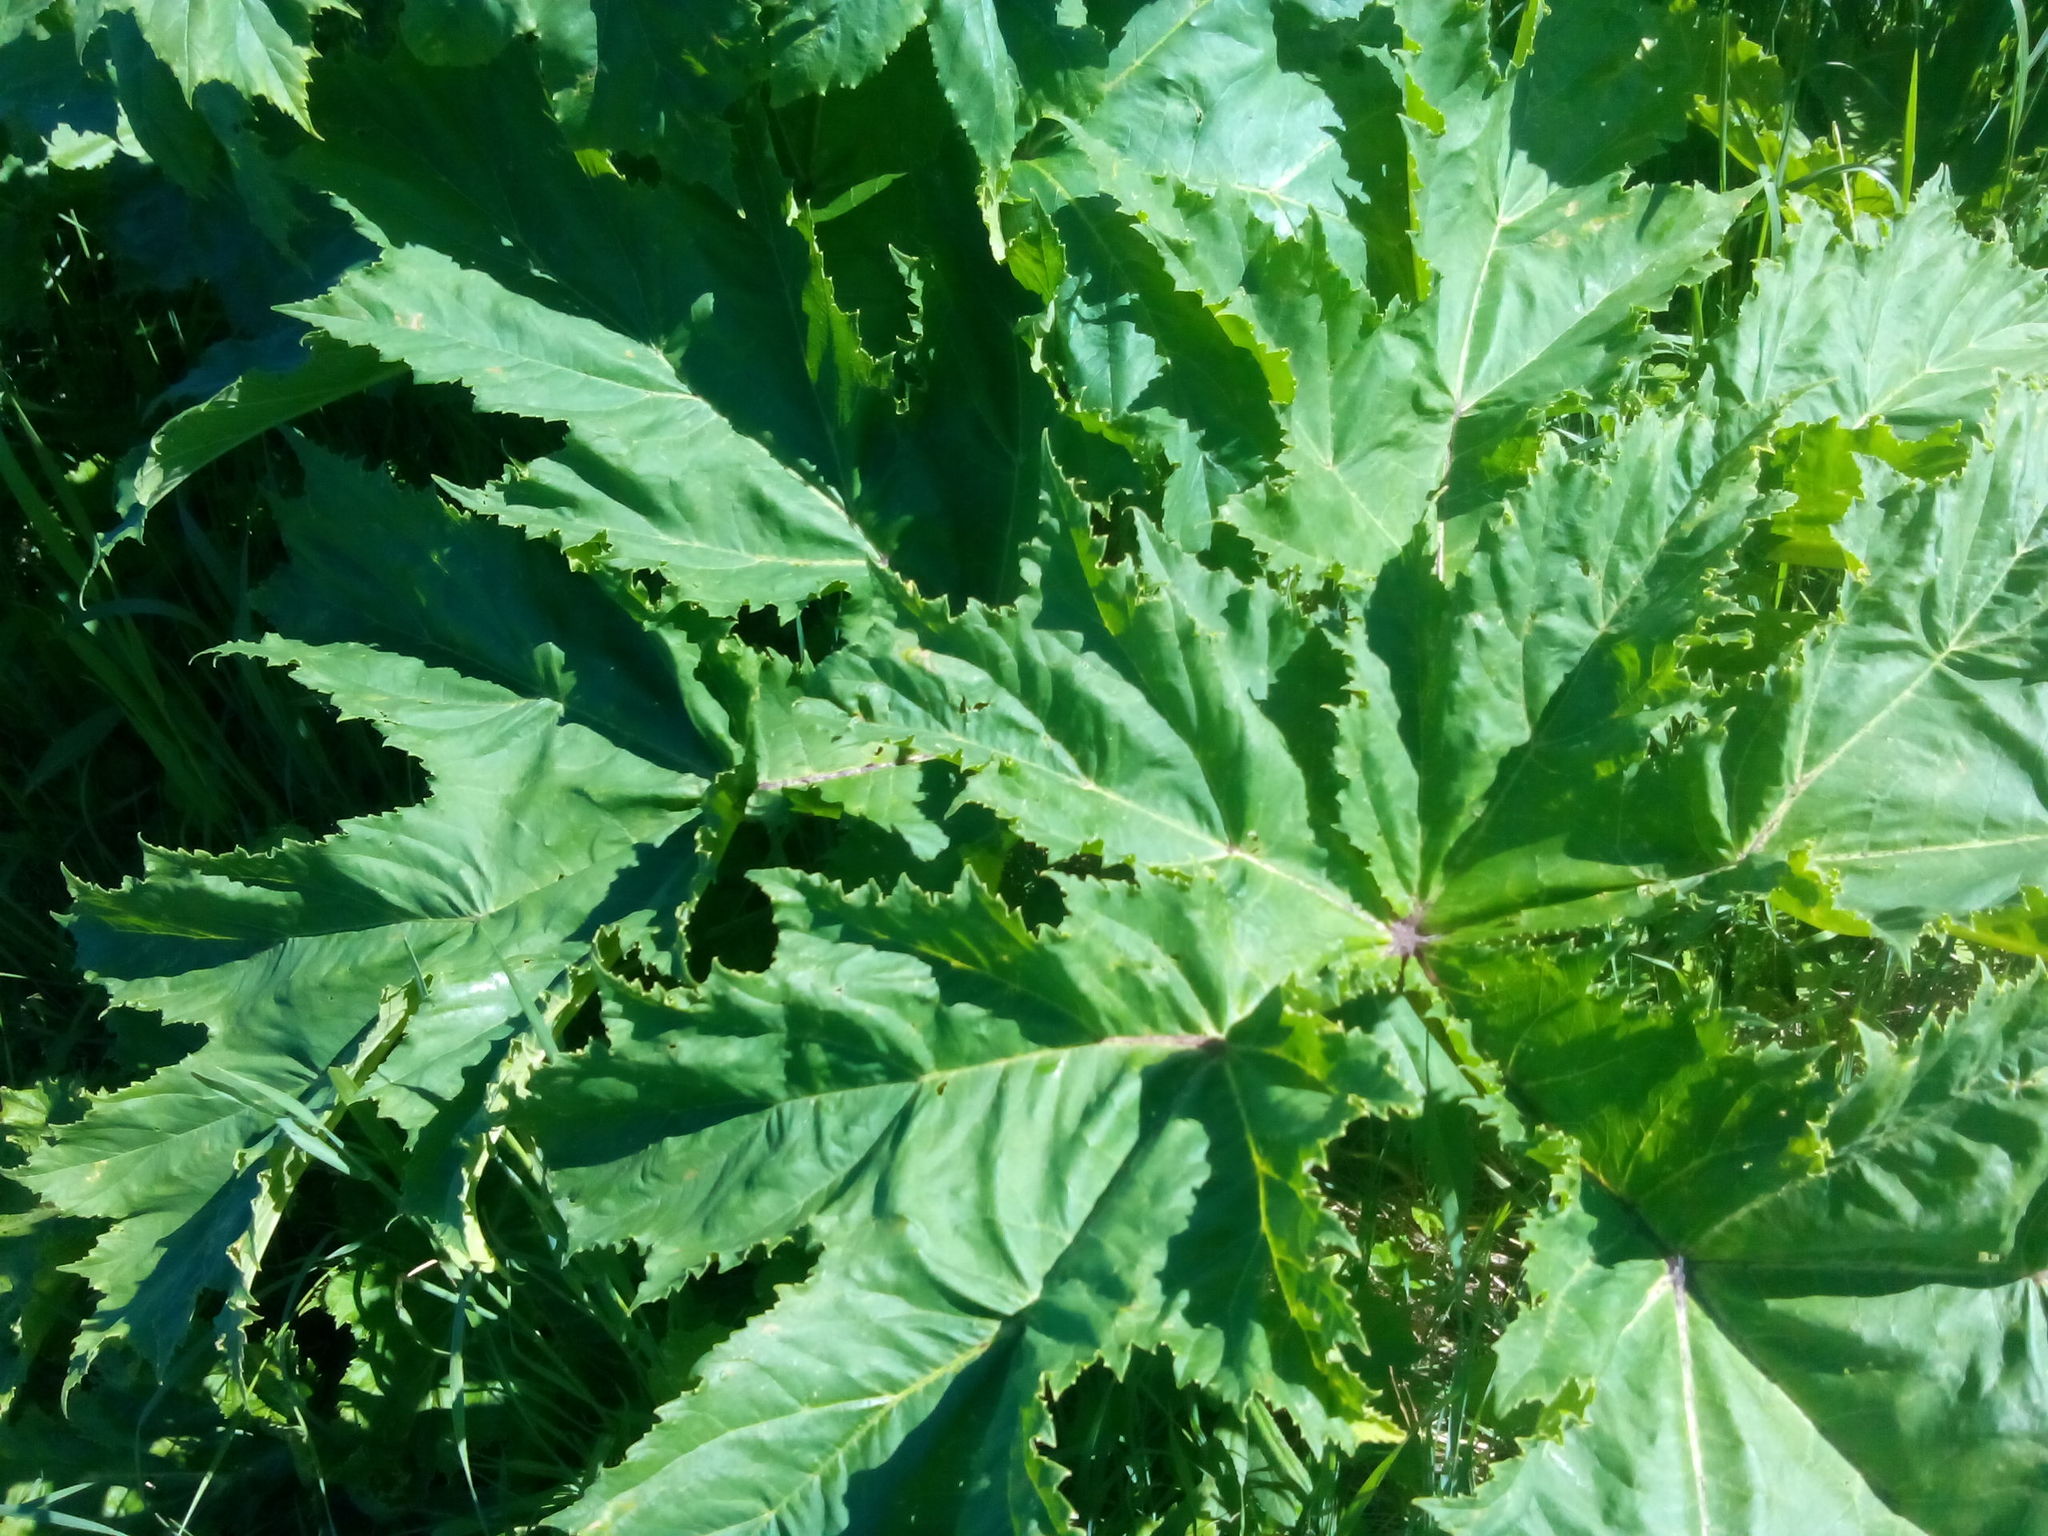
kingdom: Plantae
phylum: Tracheophyta
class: Magnoliopsida
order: Apiales
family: Apiaceae
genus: Heracleum
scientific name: Heracleum sosnowskyi
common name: Sosnowsky's hogweed
